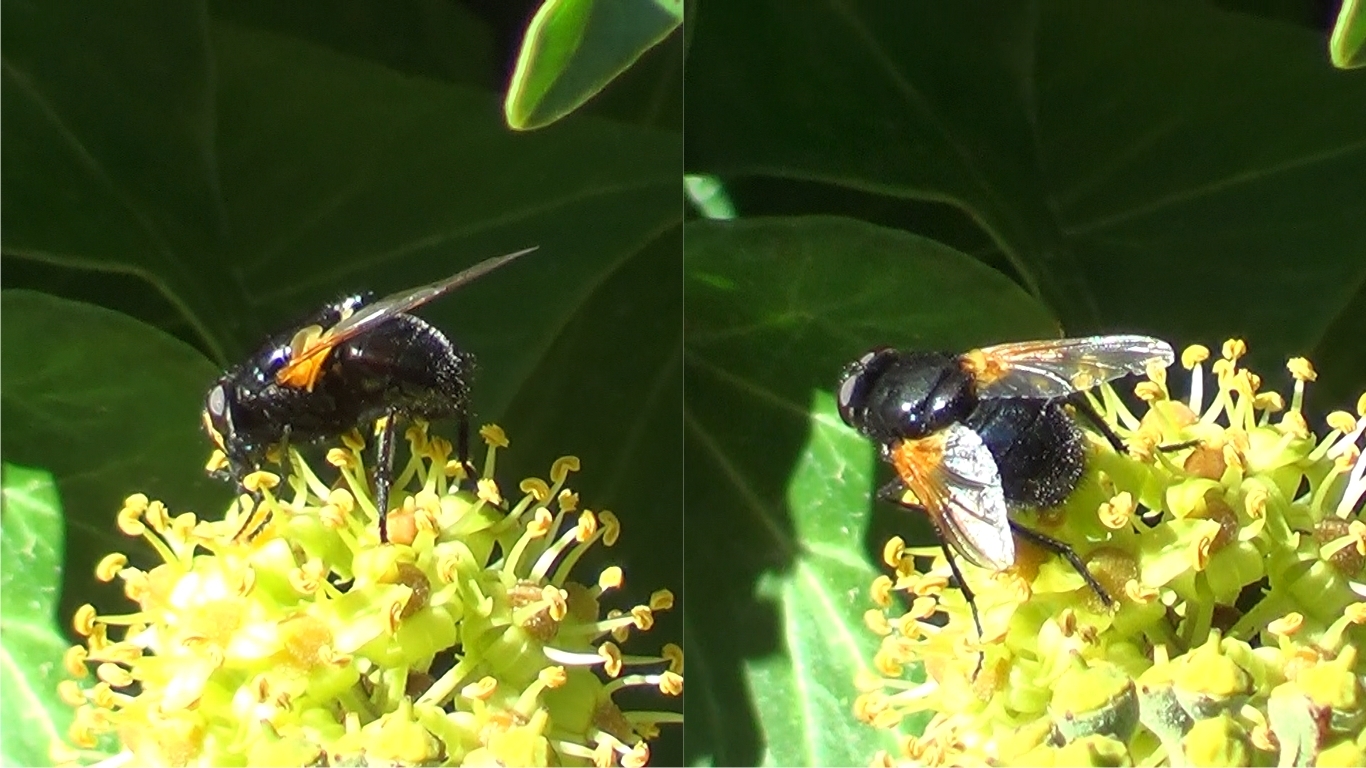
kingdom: Animalia
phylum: Arthropoda
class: Insecta
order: Diptera
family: Muscidae
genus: Mesembrina
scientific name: Mesembrina meridiana
